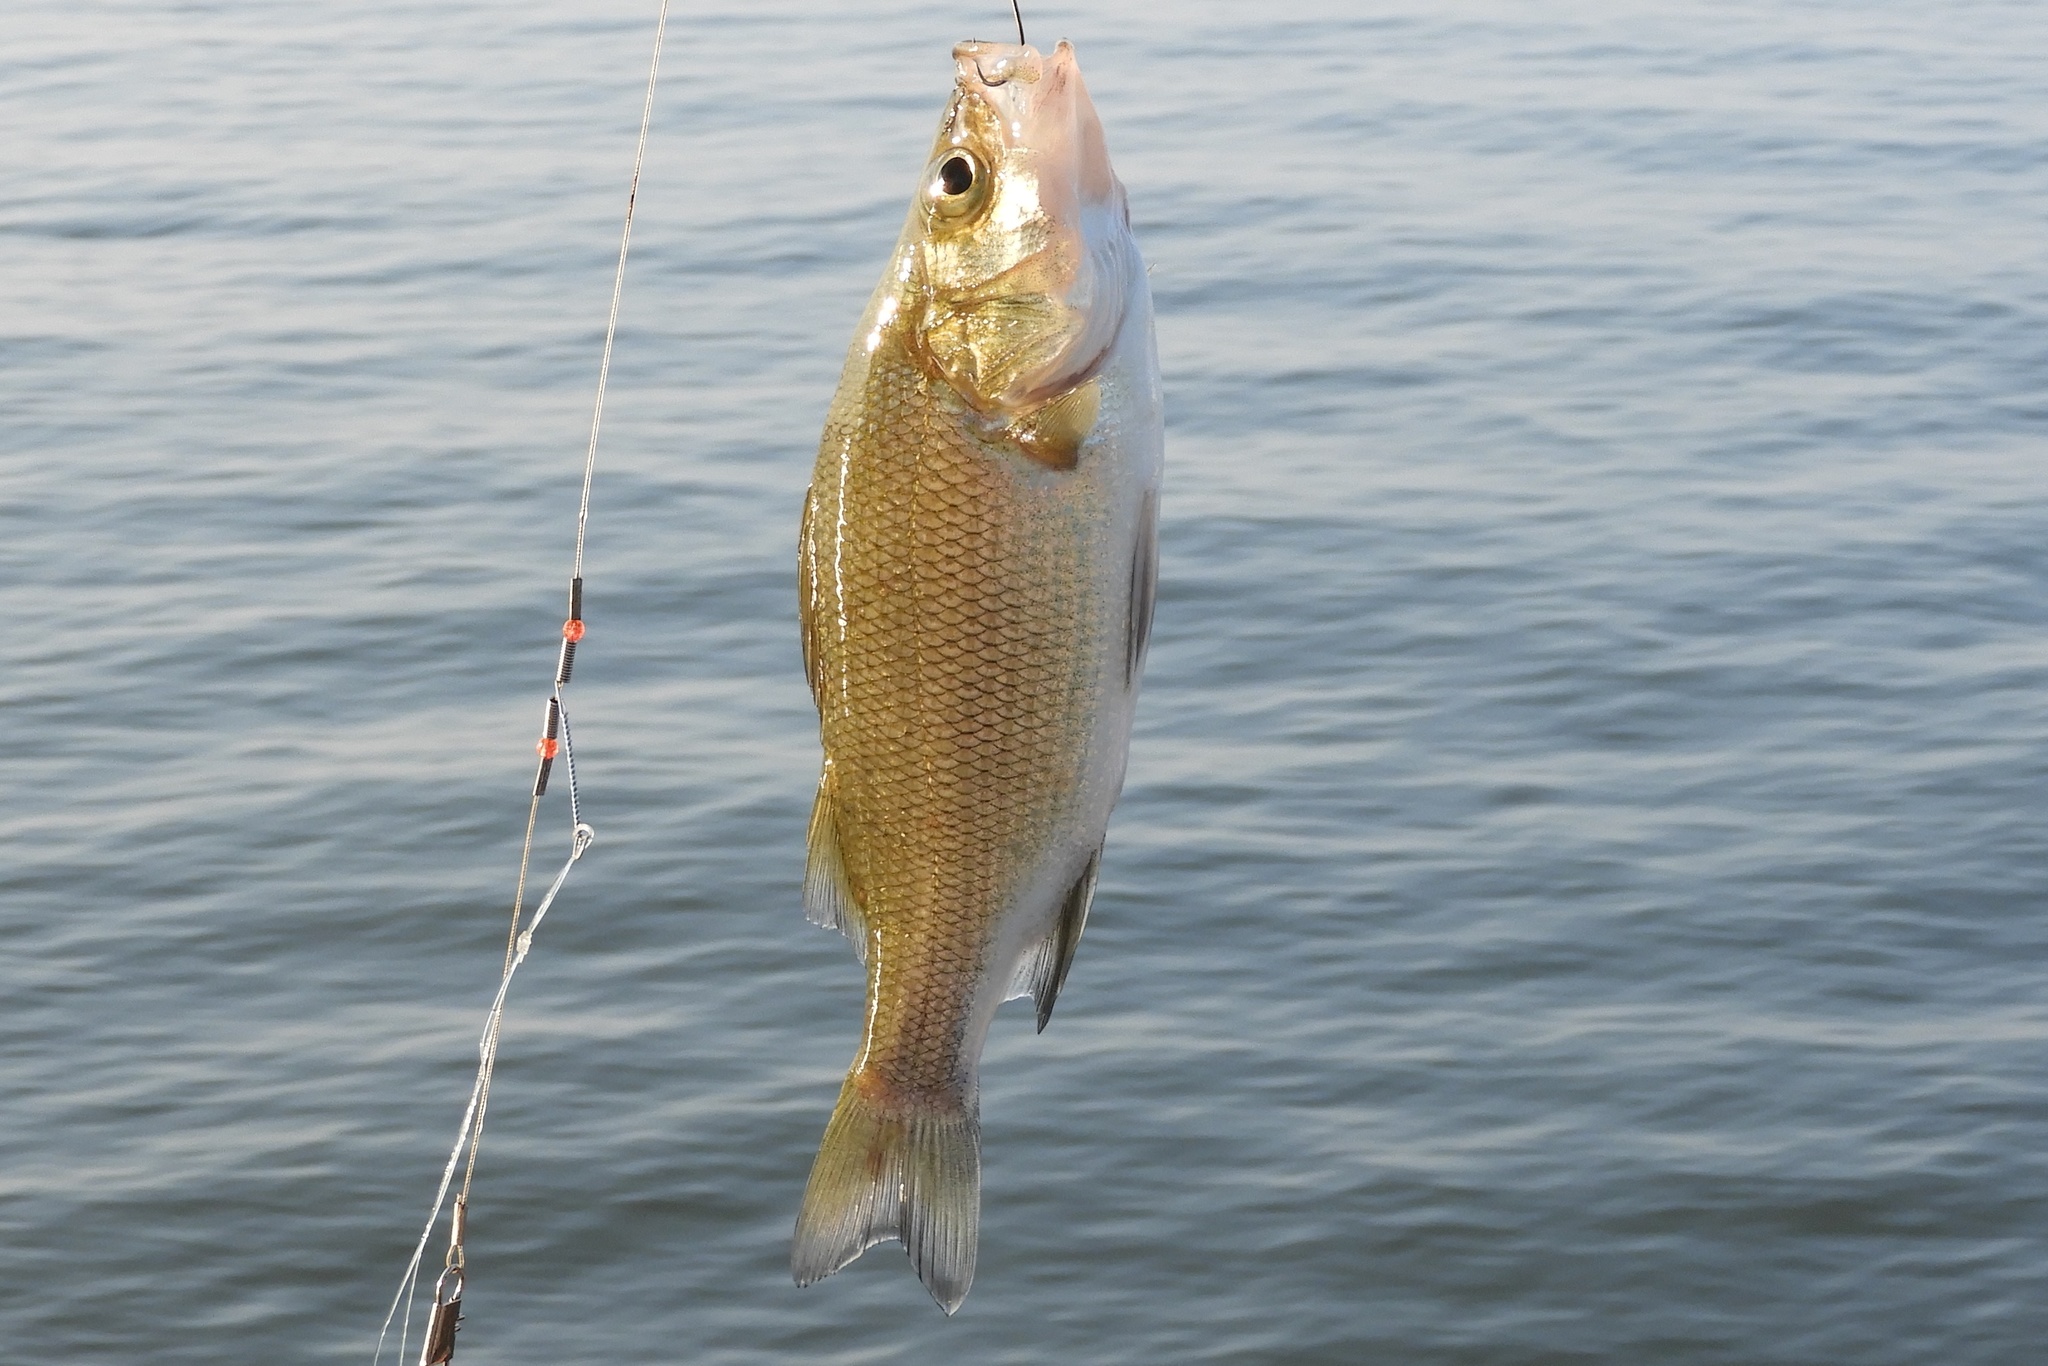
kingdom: Animalia
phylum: Chordata
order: Perciformes
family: Moronidae
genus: Morone
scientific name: Morone americana
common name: White perch
